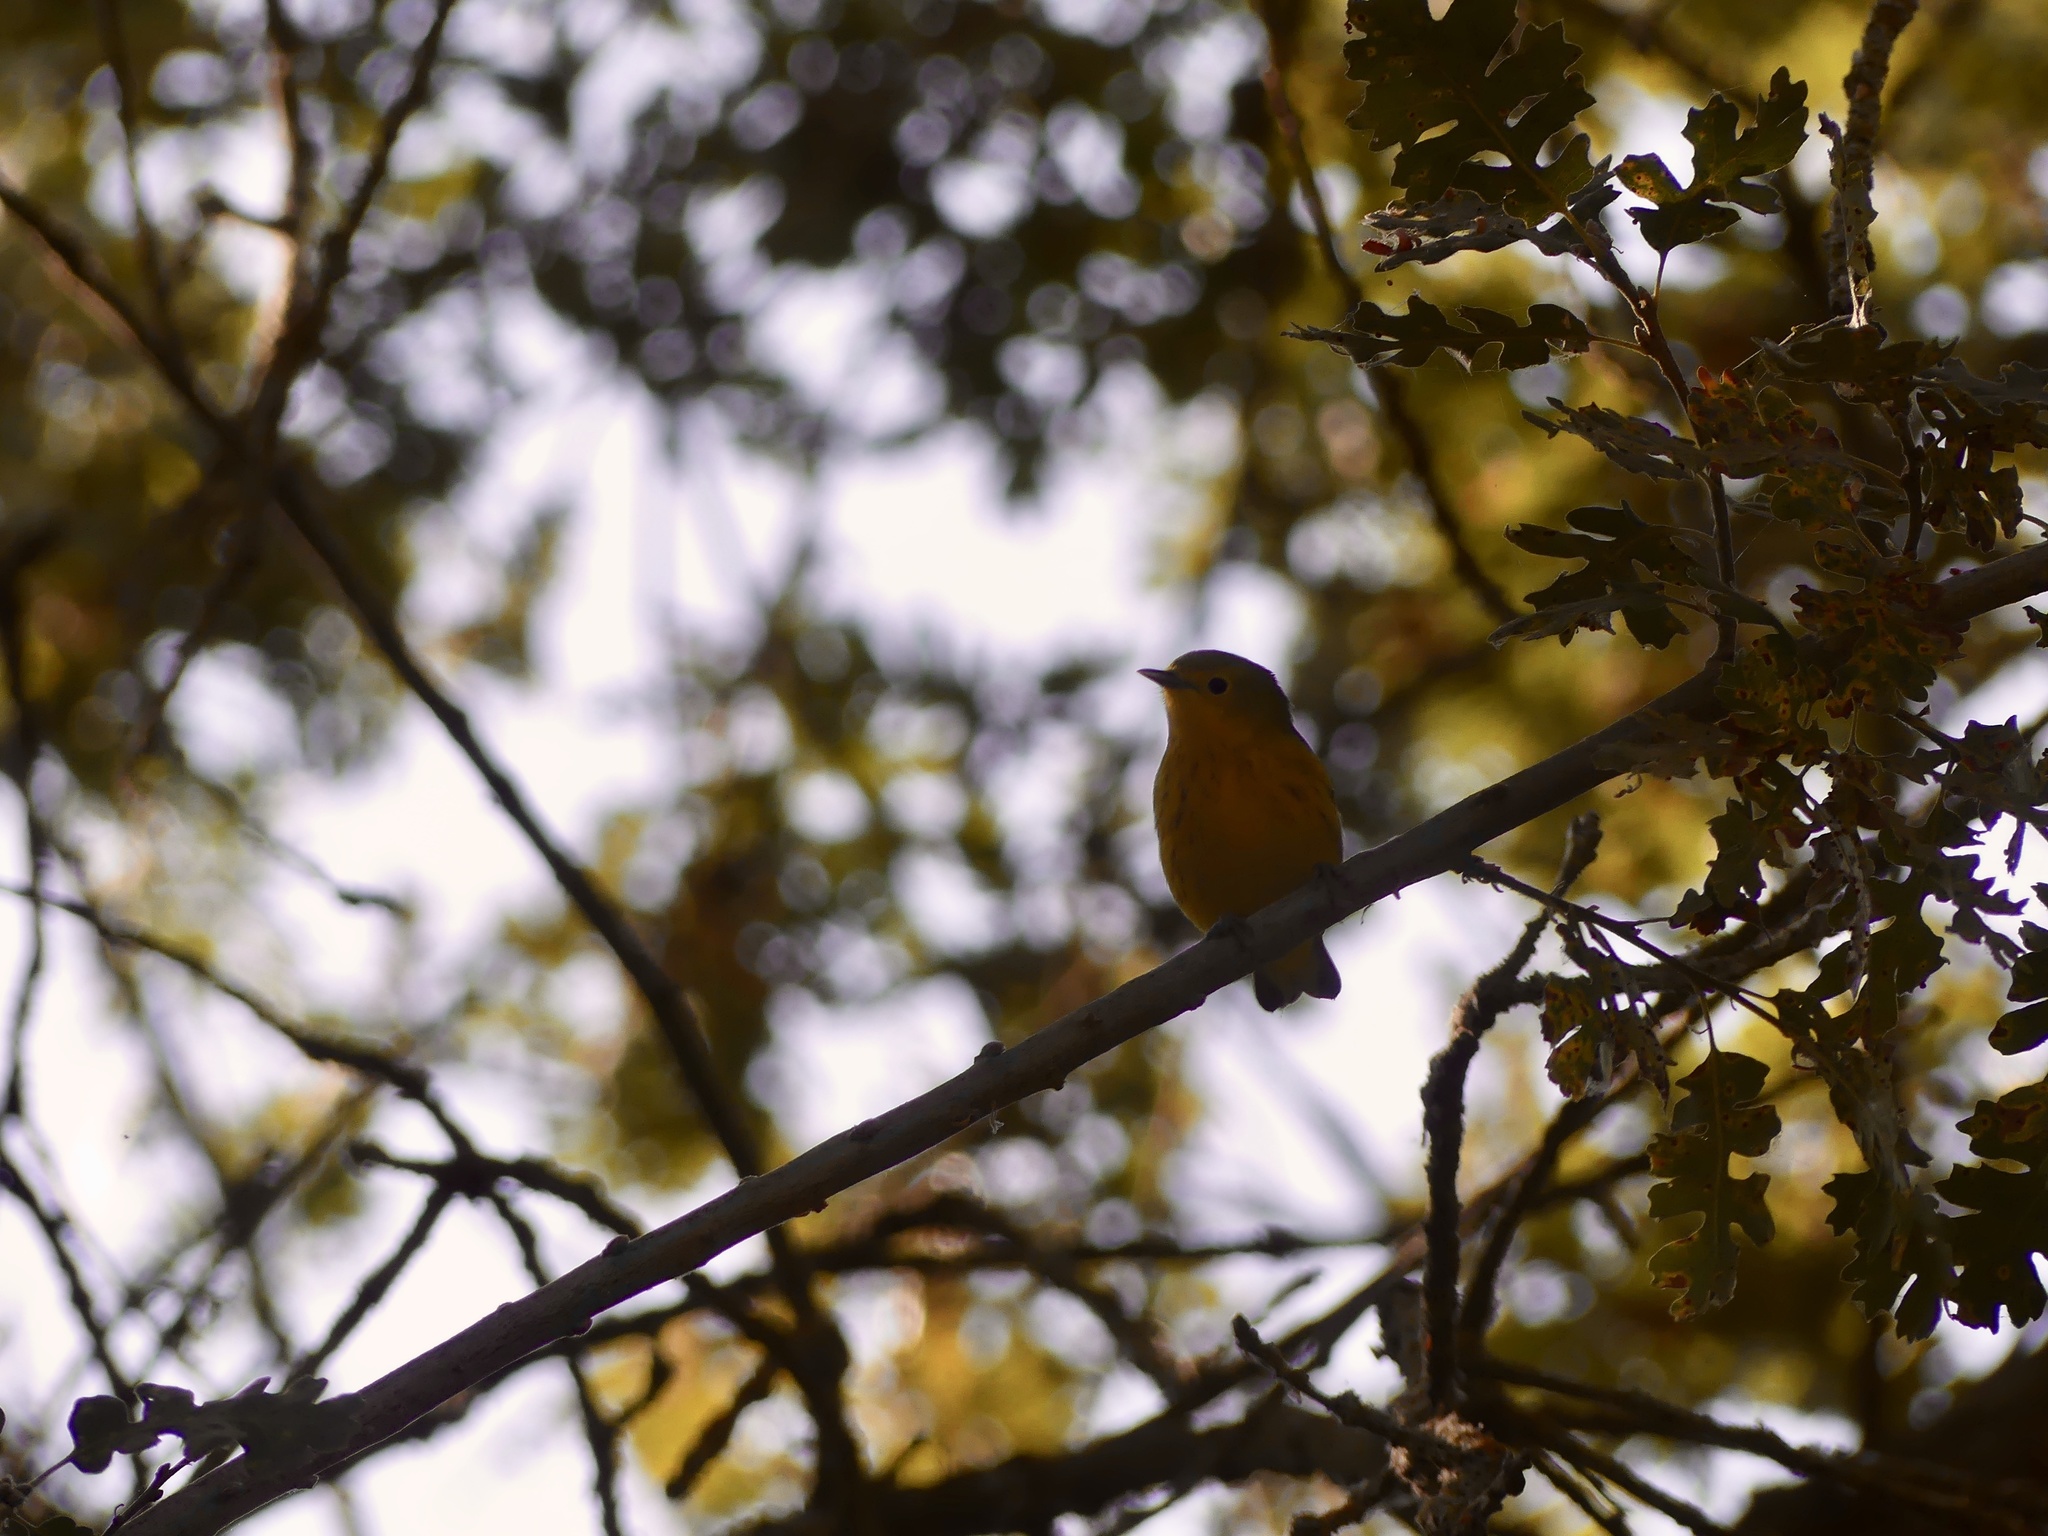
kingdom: Animalia
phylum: Chordata
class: Aves
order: Passeriformes
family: Parulidae
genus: Setophaga
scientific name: Setophaga petechia
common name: Yellow warbler
